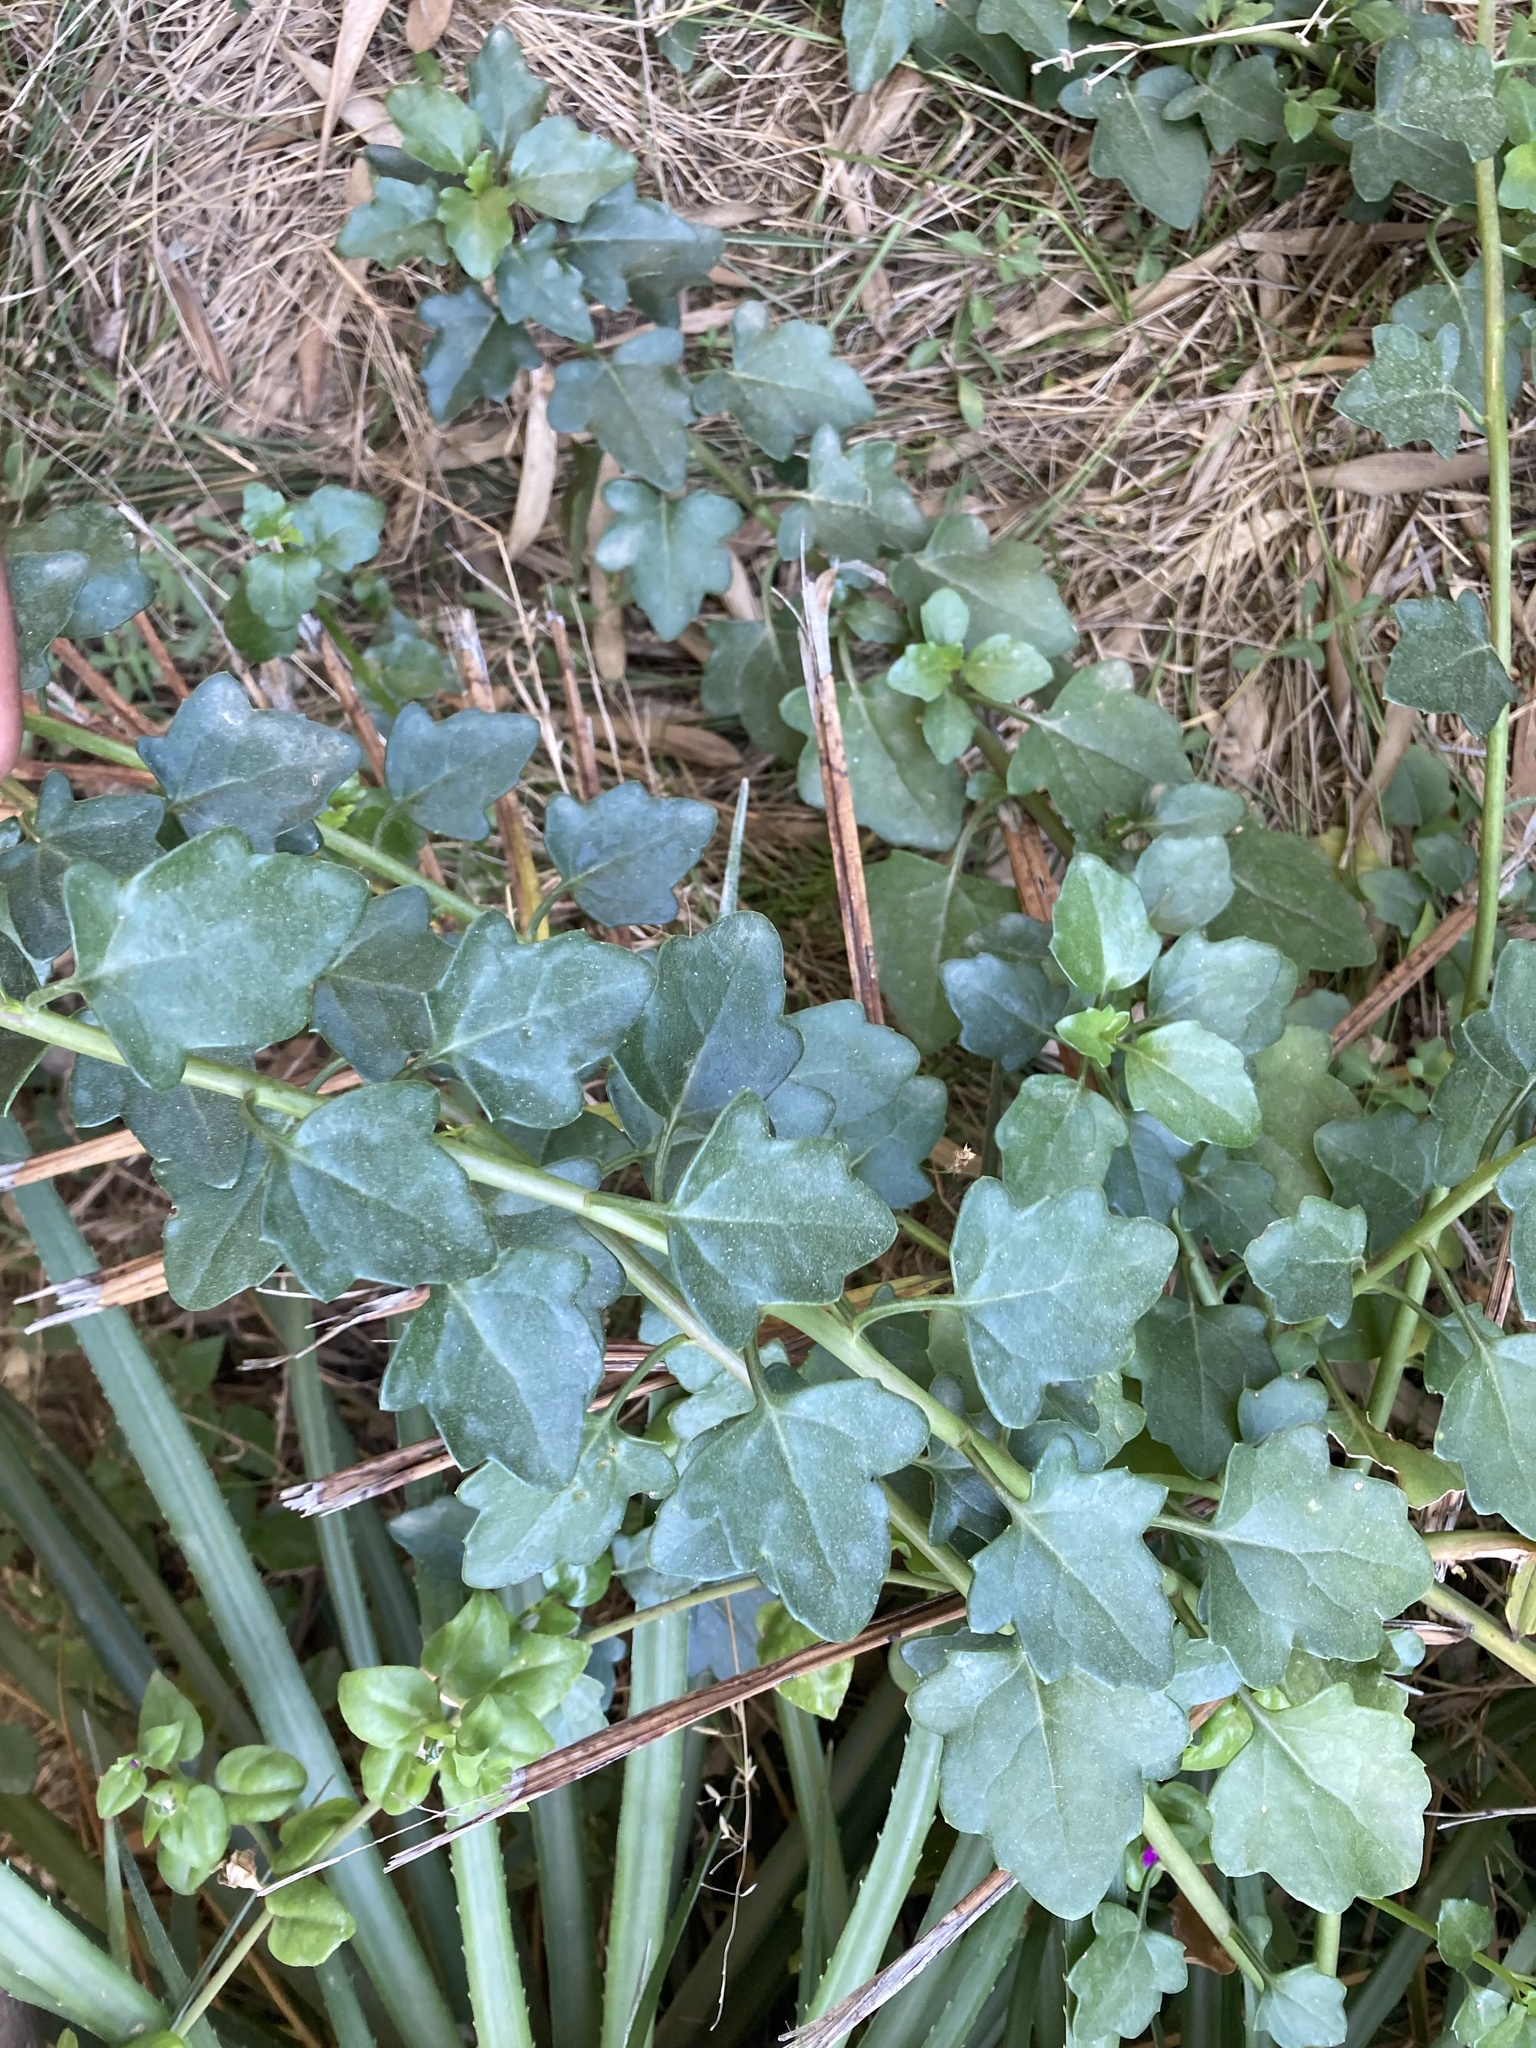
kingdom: Plantae
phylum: Tracheophyta
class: Magnoliopsida
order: Asterales
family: Asteraceae
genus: Senecio
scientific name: Senecio angulatus
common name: Climbing groundsel
